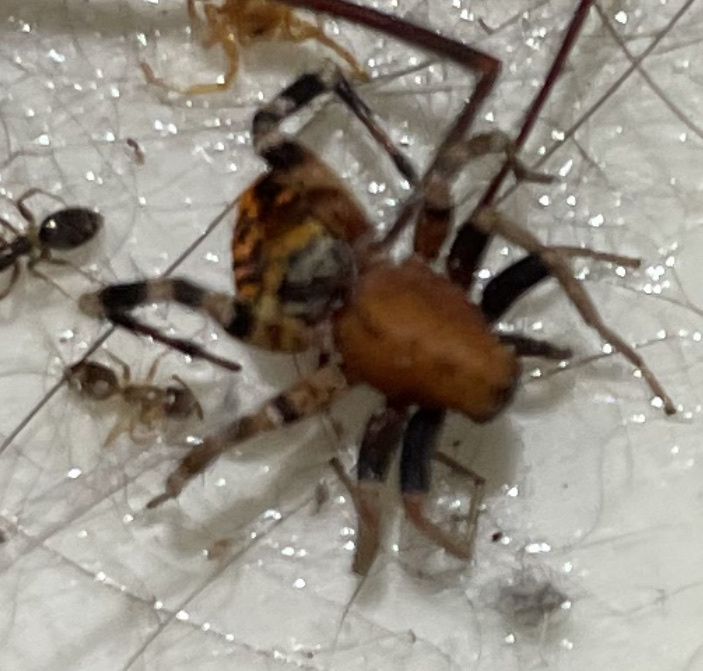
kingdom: Animalia
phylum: Arthropoda
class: Arachnida
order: Araneae
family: Corinnidae
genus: Castianeira
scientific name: Castianeira amoena
